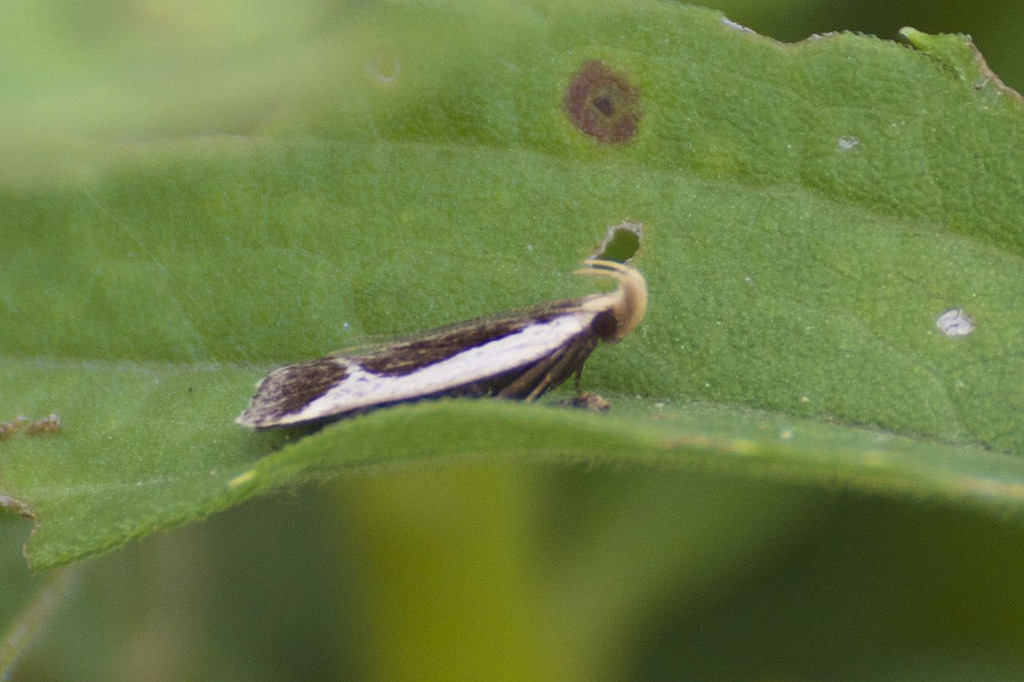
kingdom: Animalia
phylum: Arthropoda
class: Insecta
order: Lepidoptera
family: Gelechiidae
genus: Dichomeris
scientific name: Dichomeris flavocostella
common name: Cream-edged dichomeris moth
